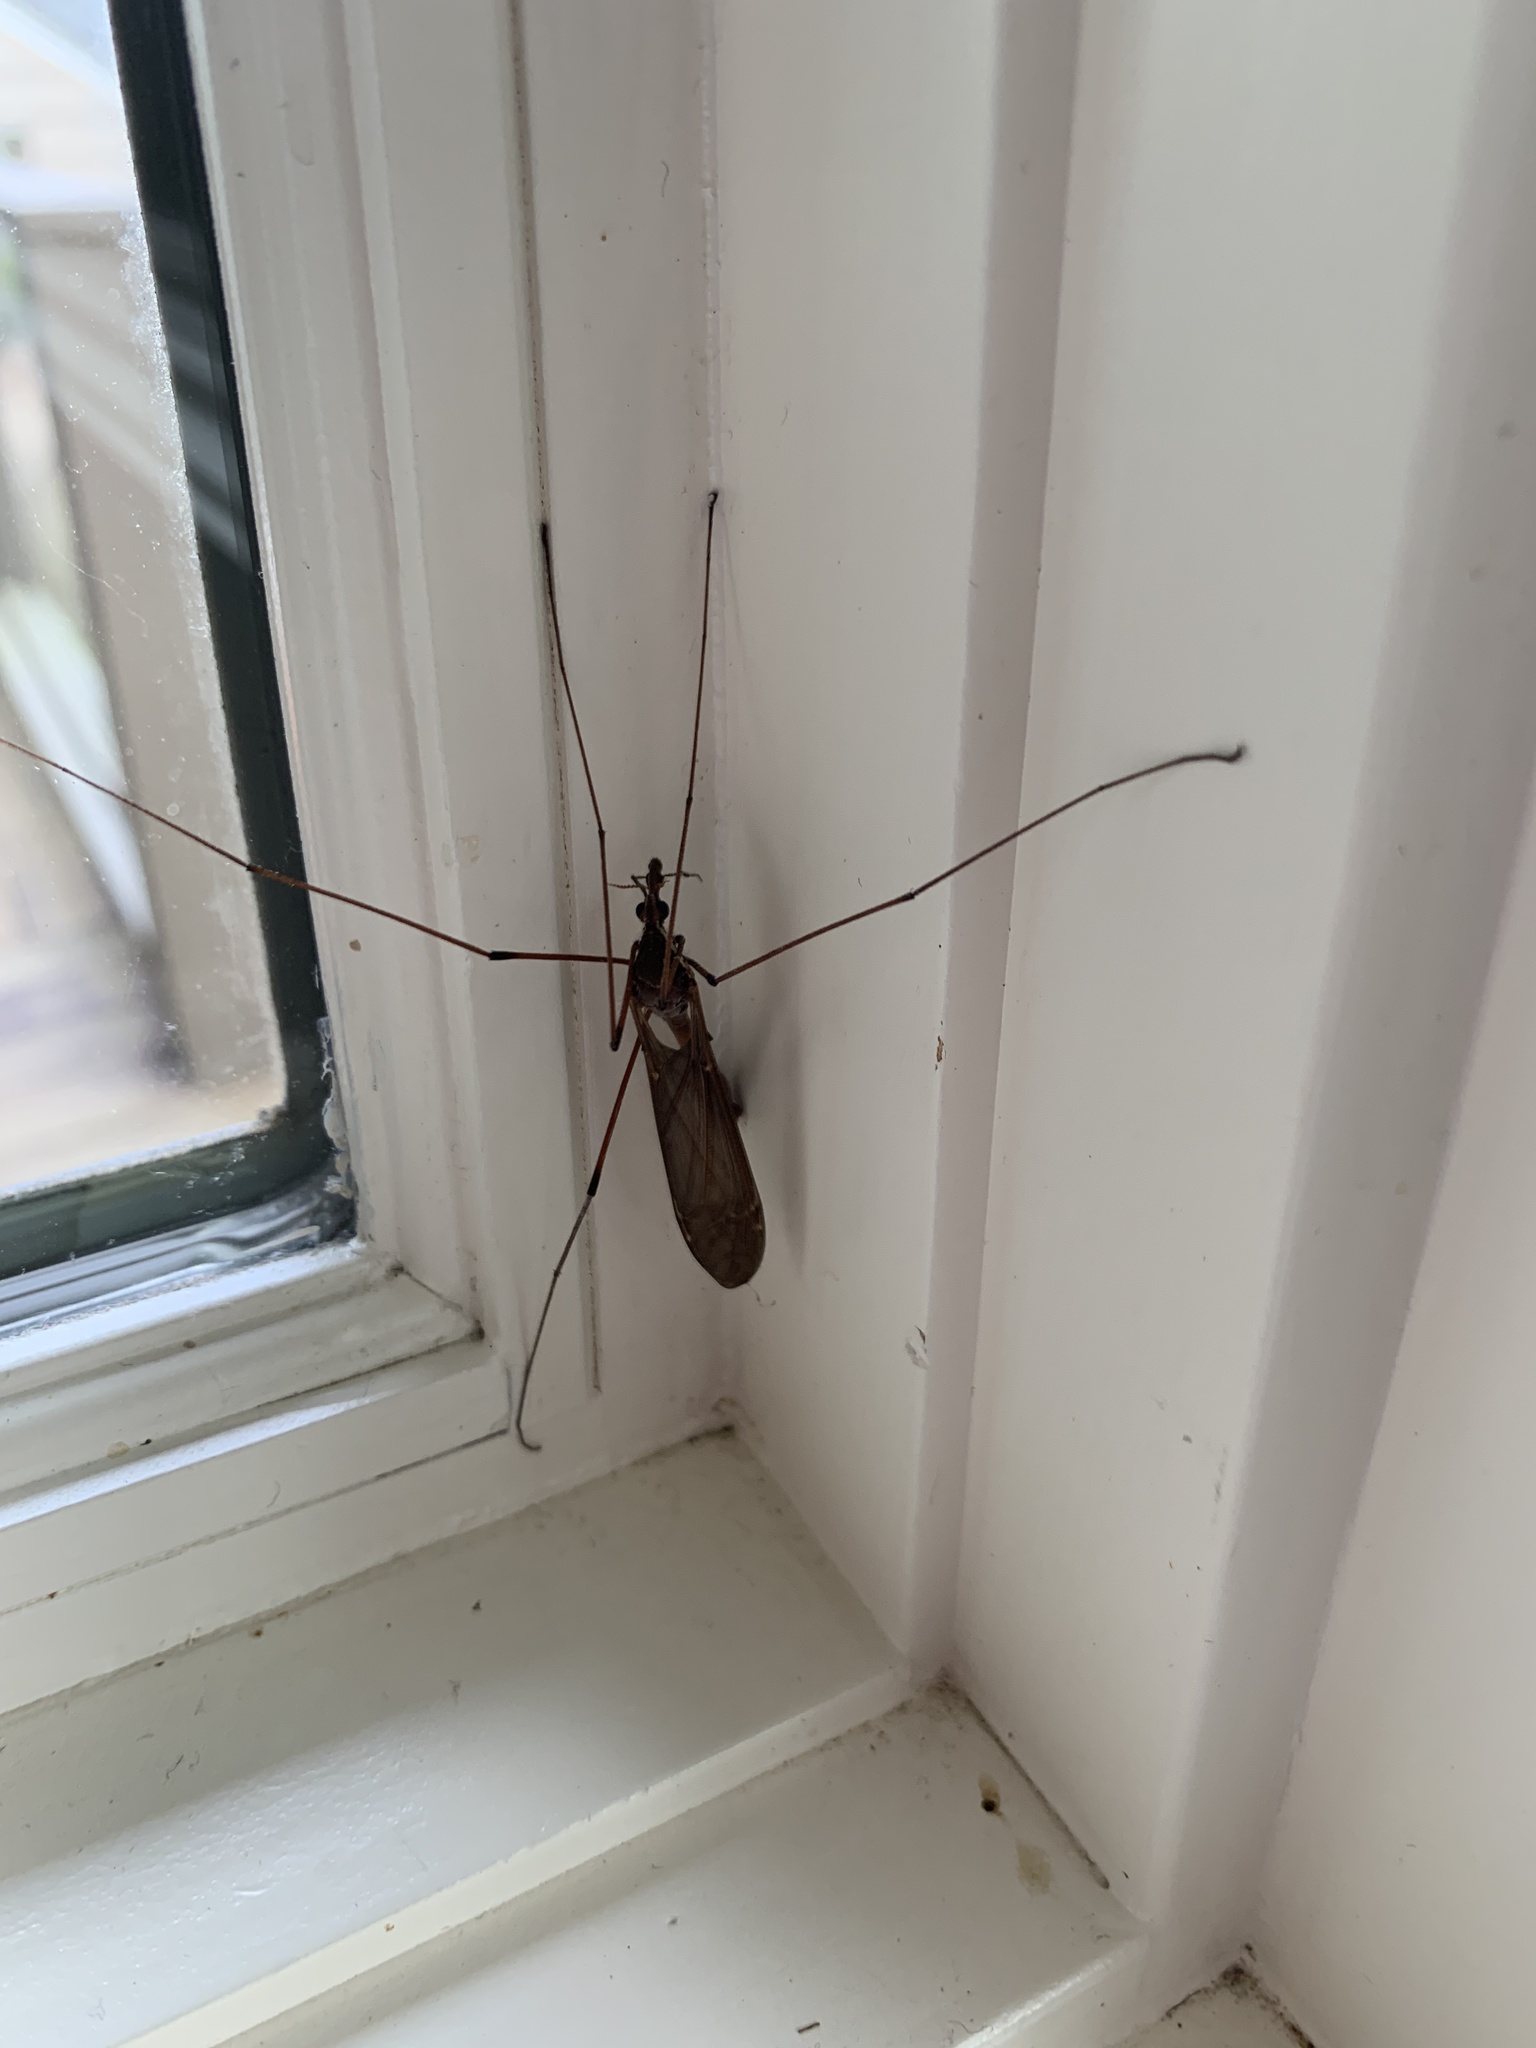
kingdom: Animalia
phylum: Arthropoda
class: Insecta
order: Diptera
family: Tipulidae
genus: Holorusia
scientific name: Holorusia hespera
